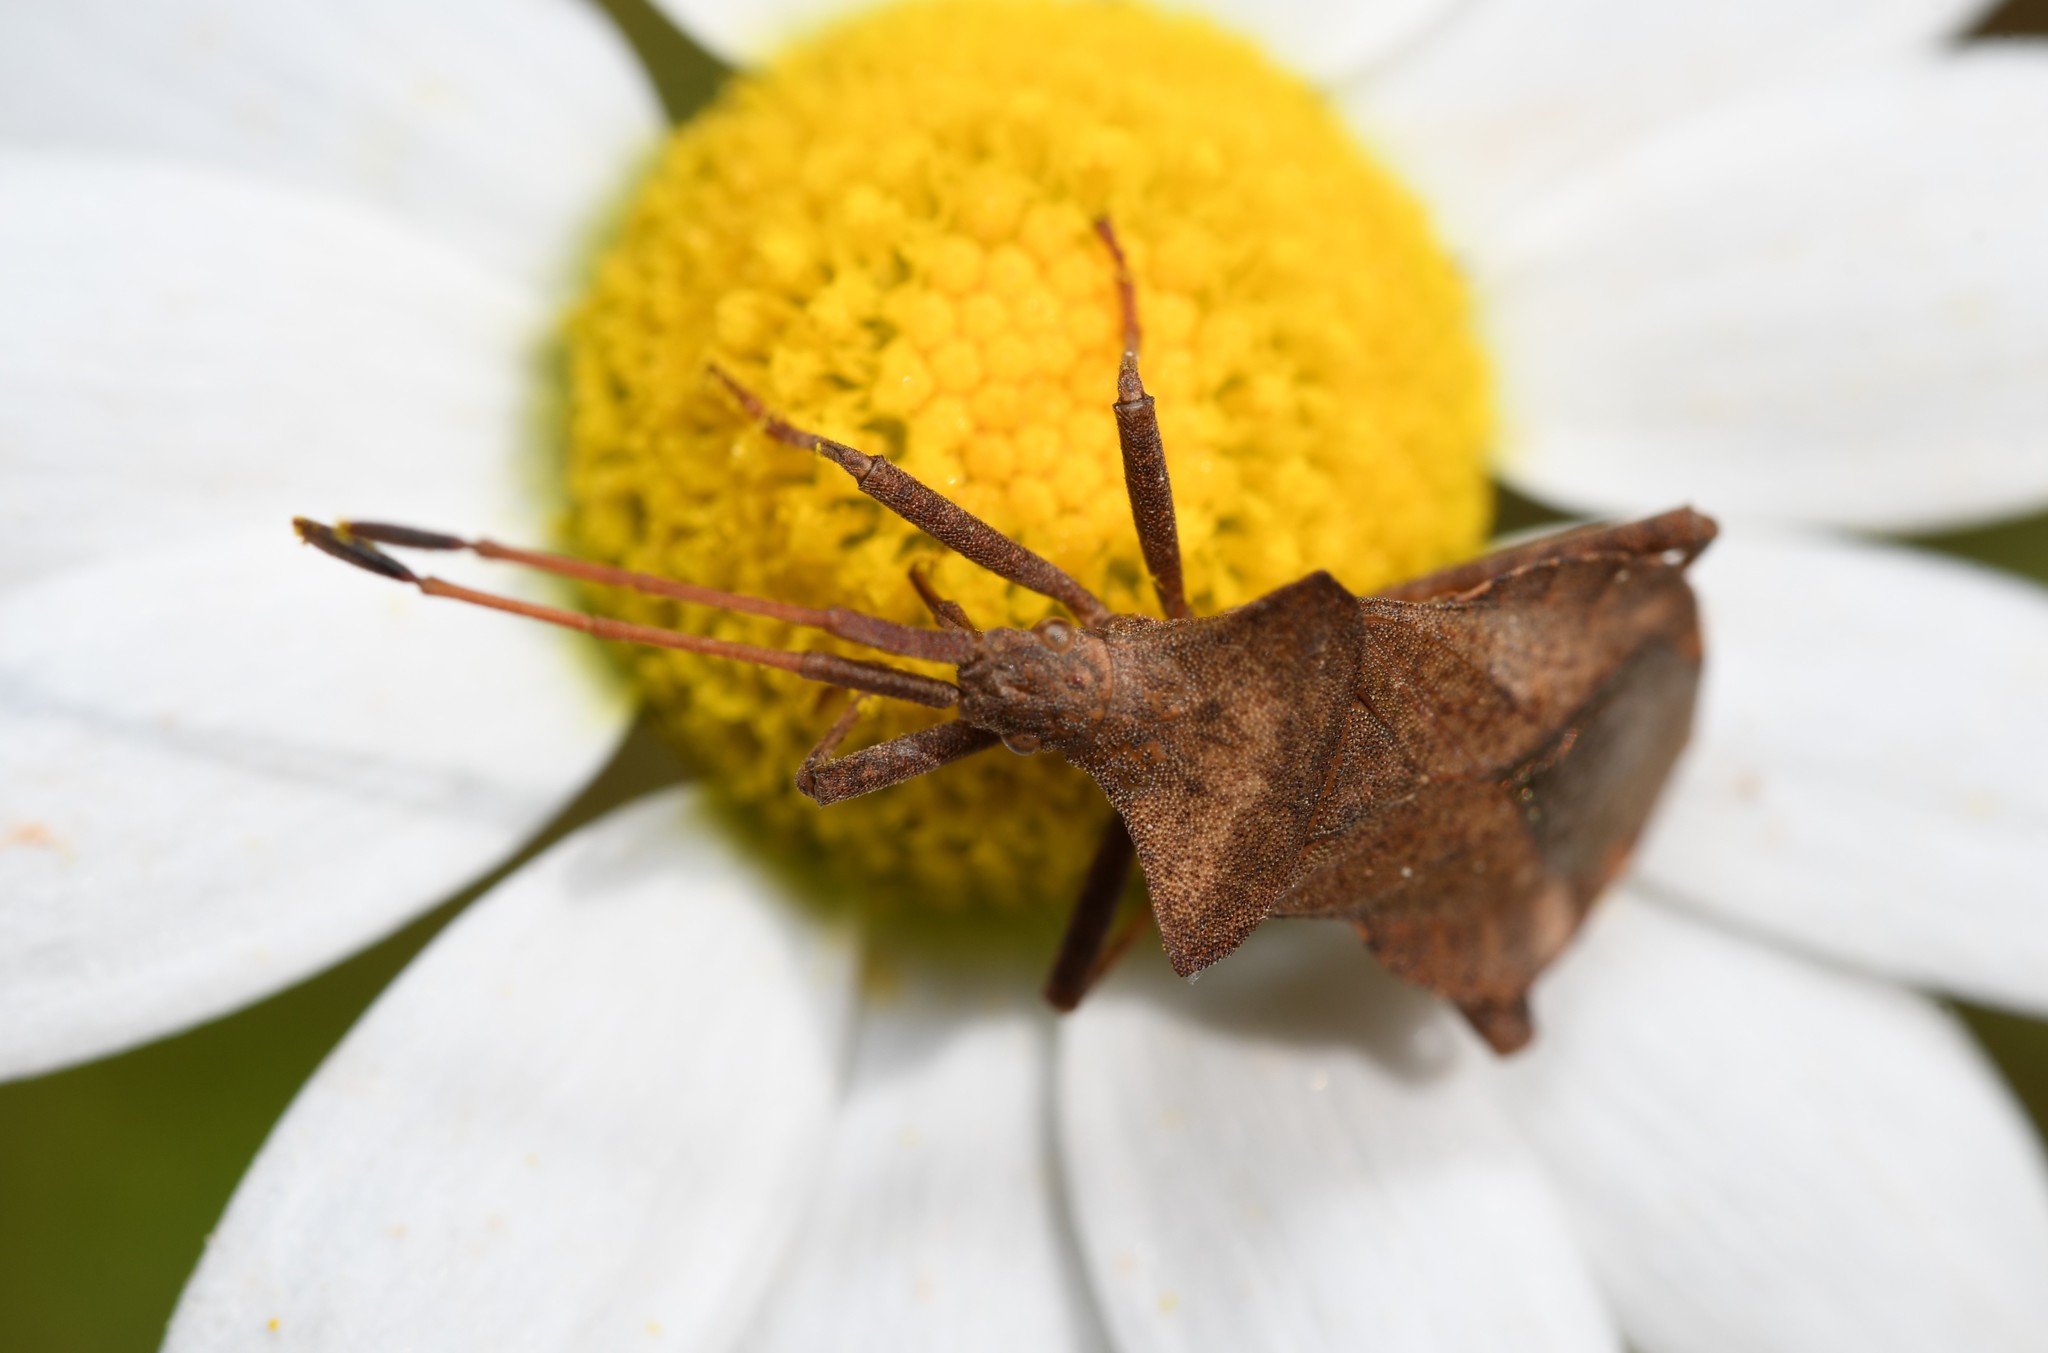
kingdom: Animalia
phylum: Arthropoda
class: Insecta
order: Hemiptera
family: Coreidae
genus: Coreus
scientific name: Coreus marginatus
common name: Dock bug
